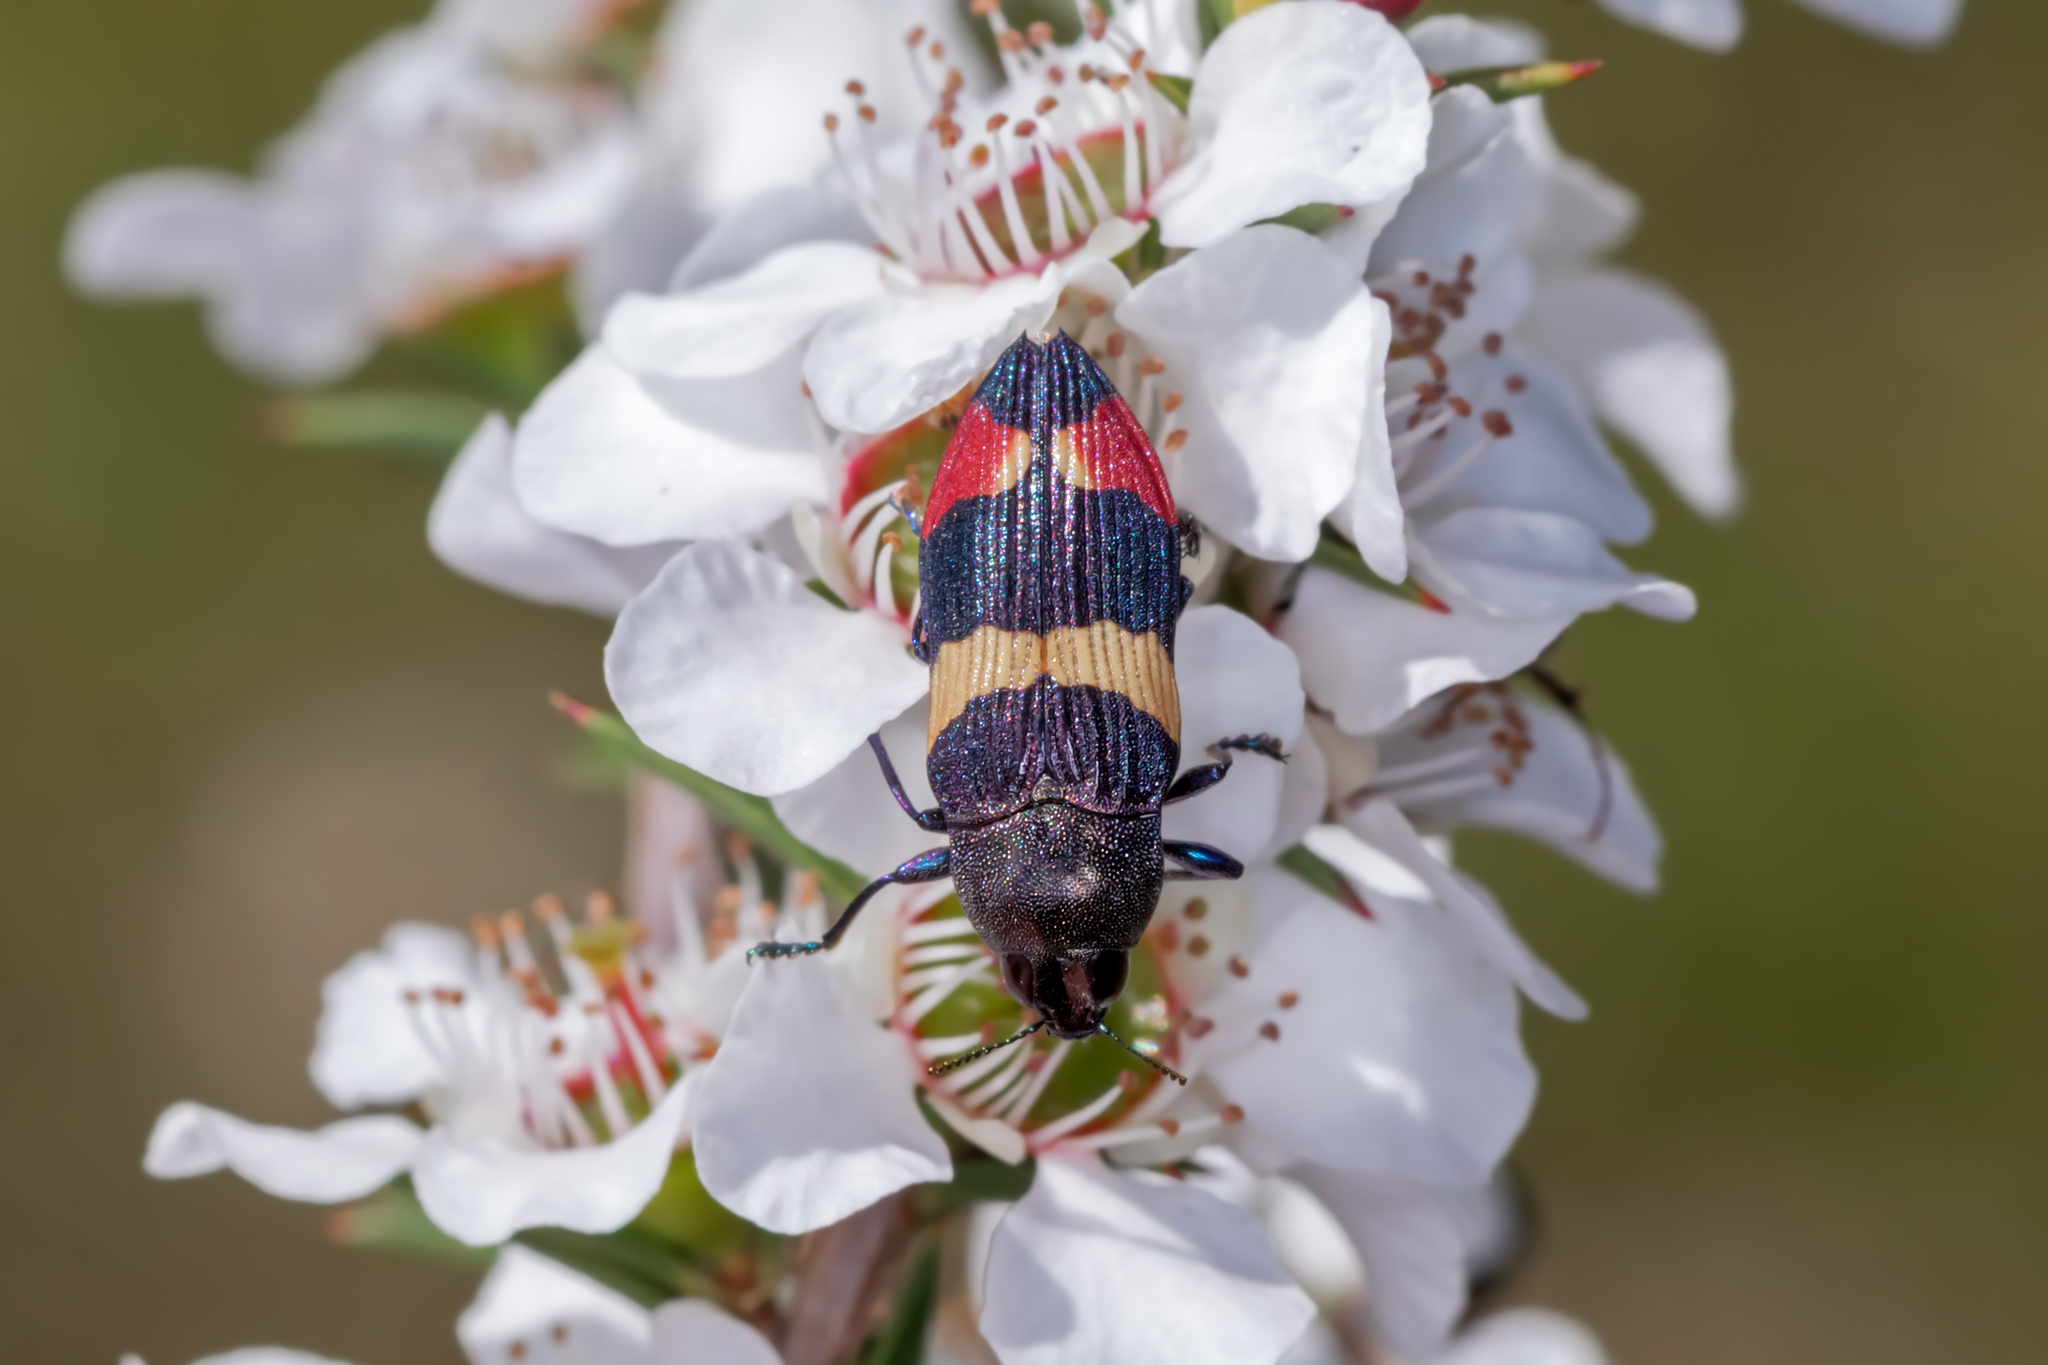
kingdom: Animalia
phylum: Arthropoda
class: Insecta
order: Coleoptera
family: Buprestidae
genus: Castiarina
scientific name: Castiarina bella
